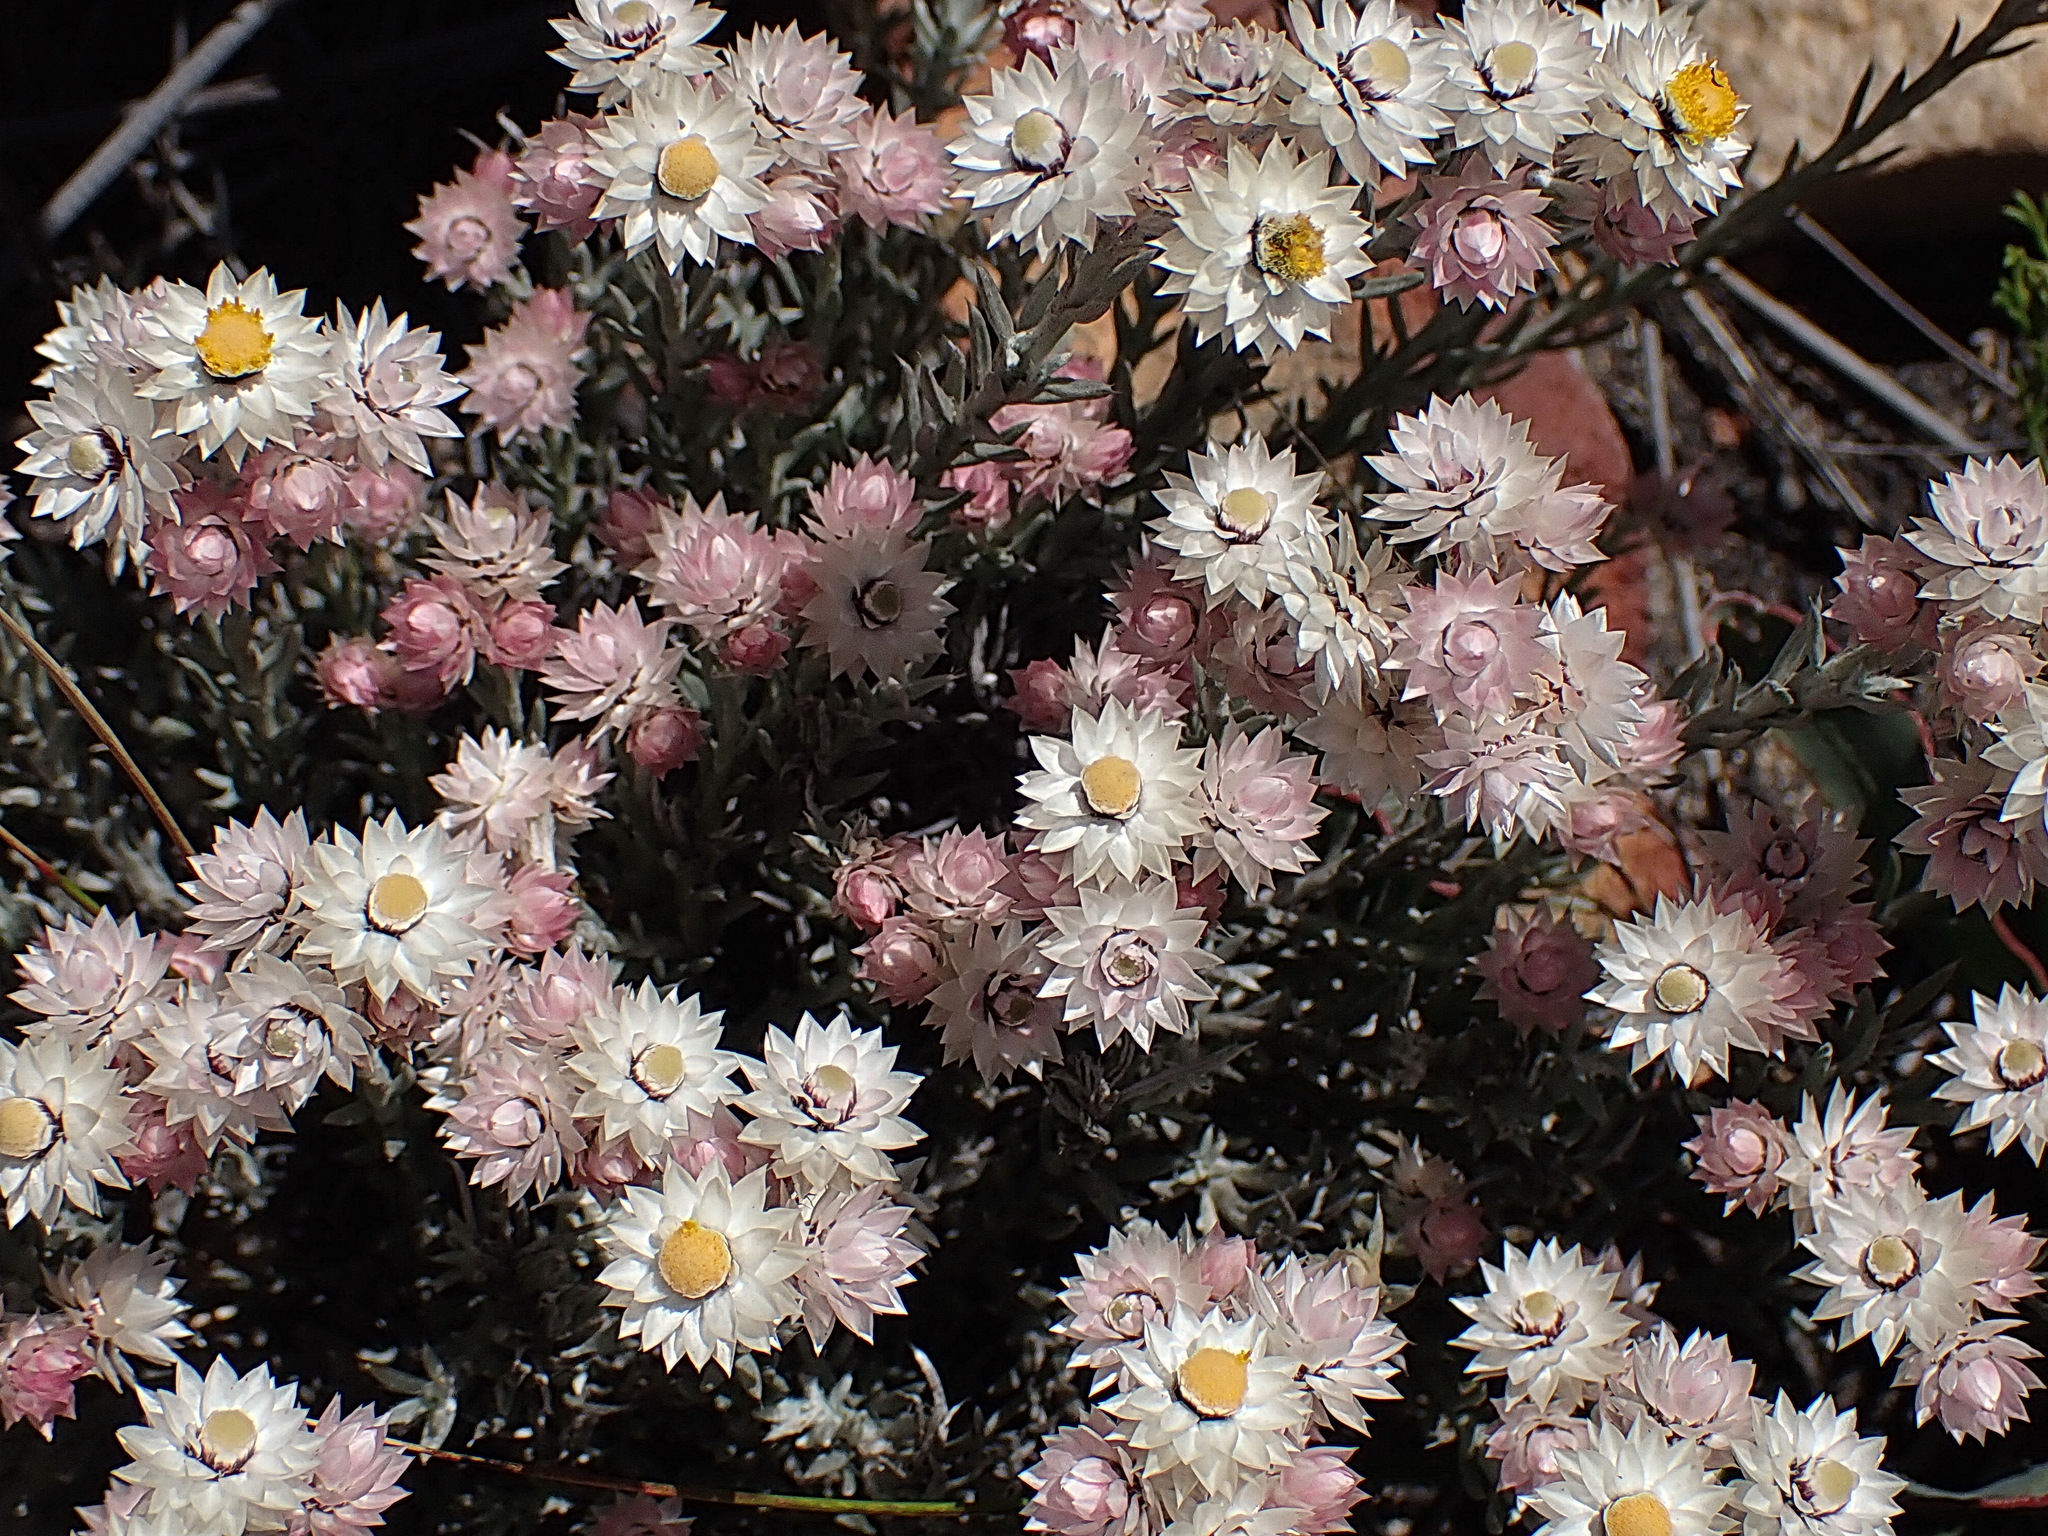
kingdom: Plantae
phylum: Tracheophyta
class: Magnoliopsida
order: Asterales
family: Asteraceae
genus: Achyranthemum
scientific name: Achyranthemum paniculatum
